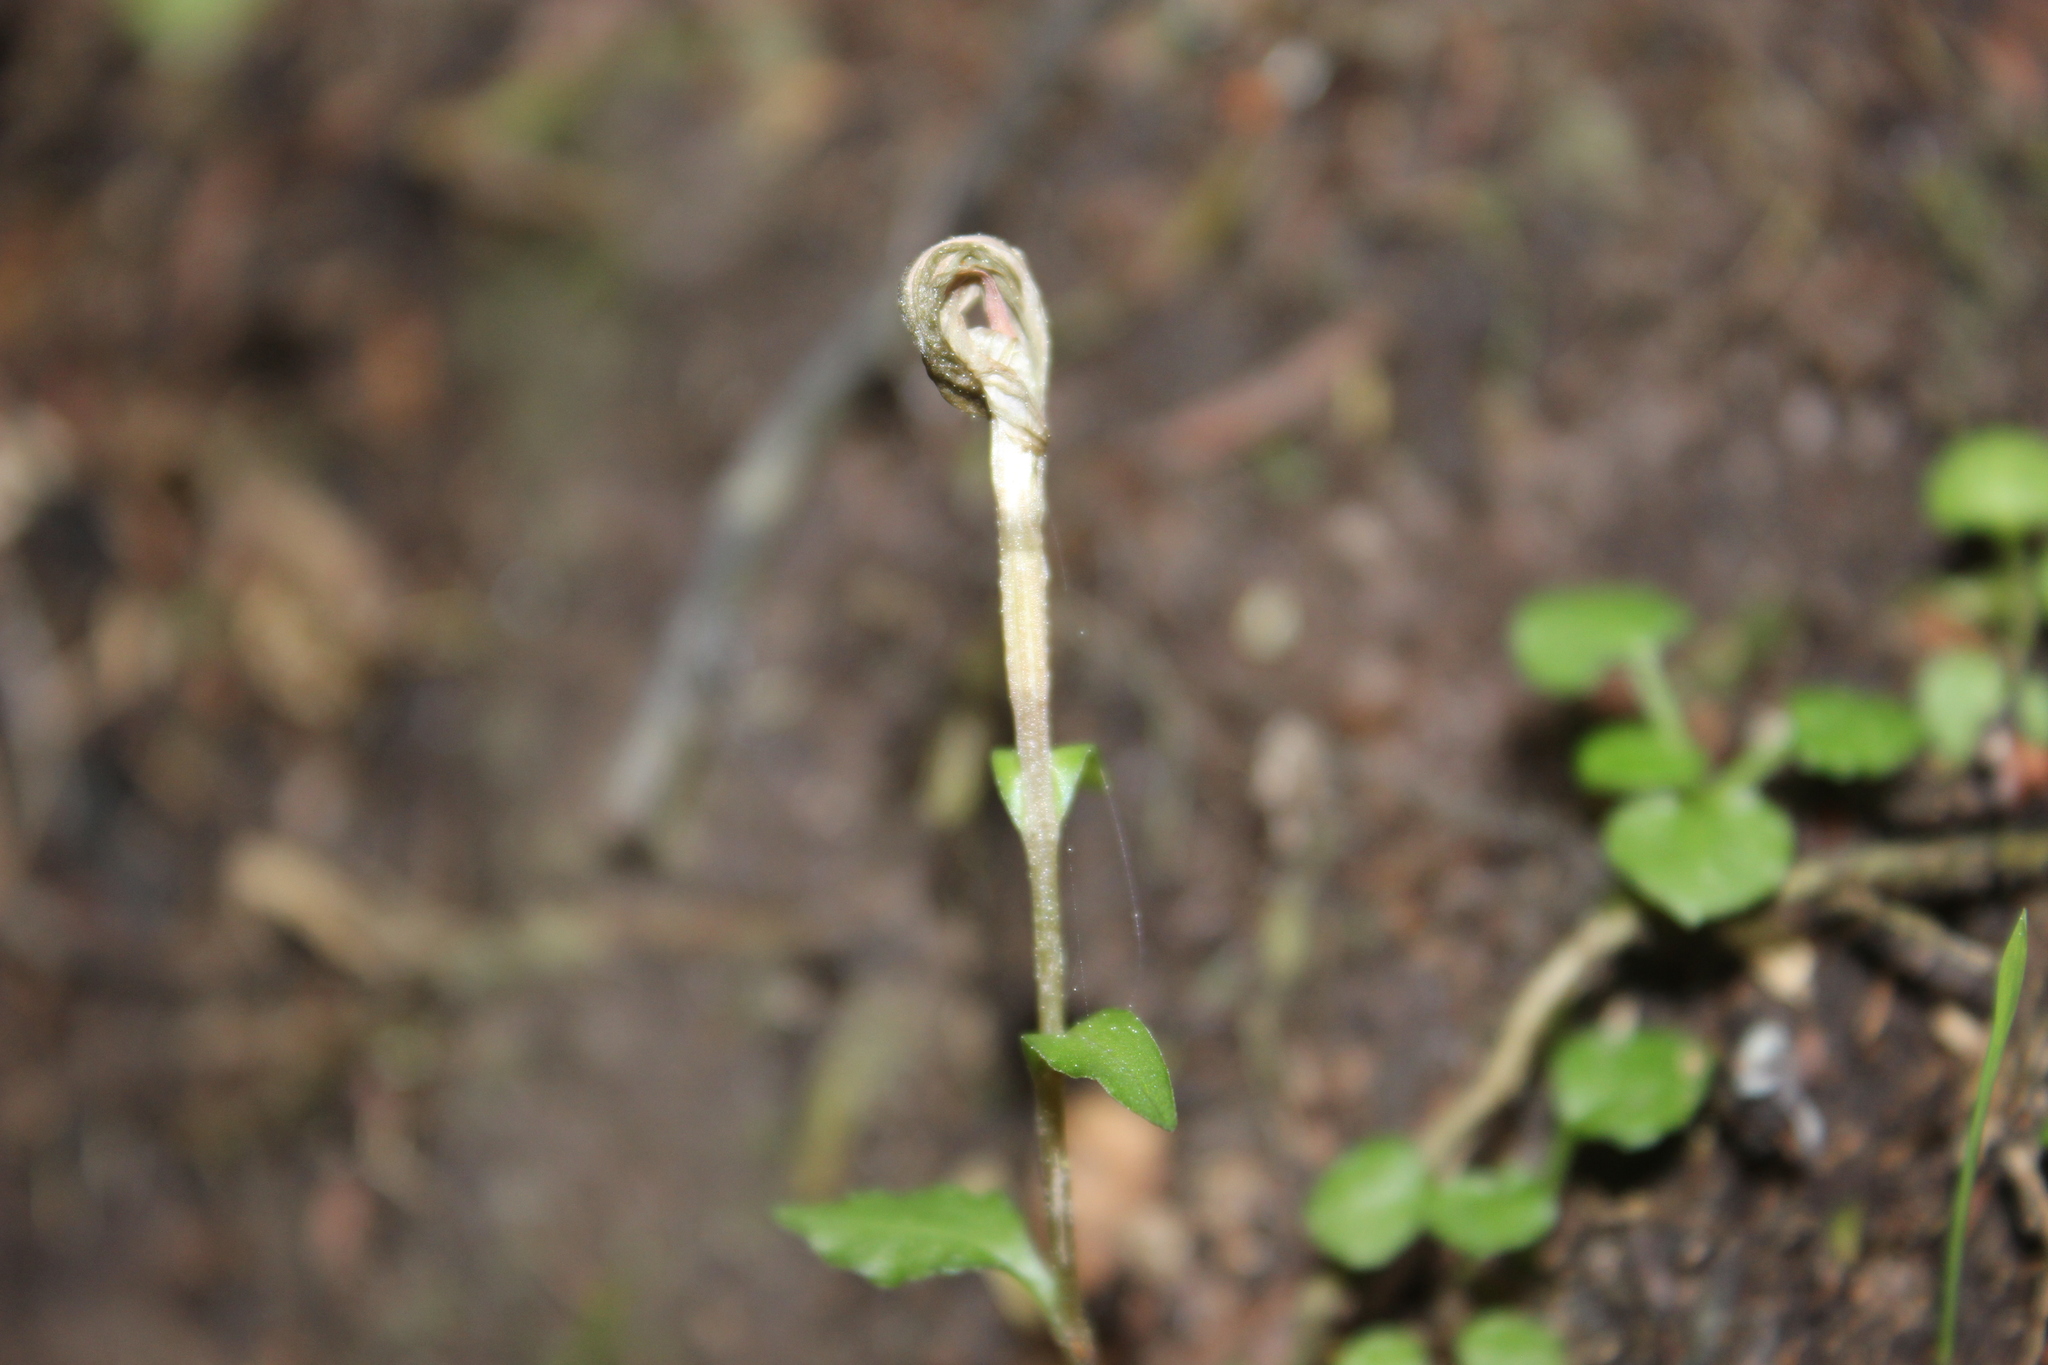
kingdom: Plantae
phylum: Tracheophyta
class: Liliopsida
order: Asparagales
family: Orchidaceae
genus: Pterostylis
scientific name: Pterostylis alobula
